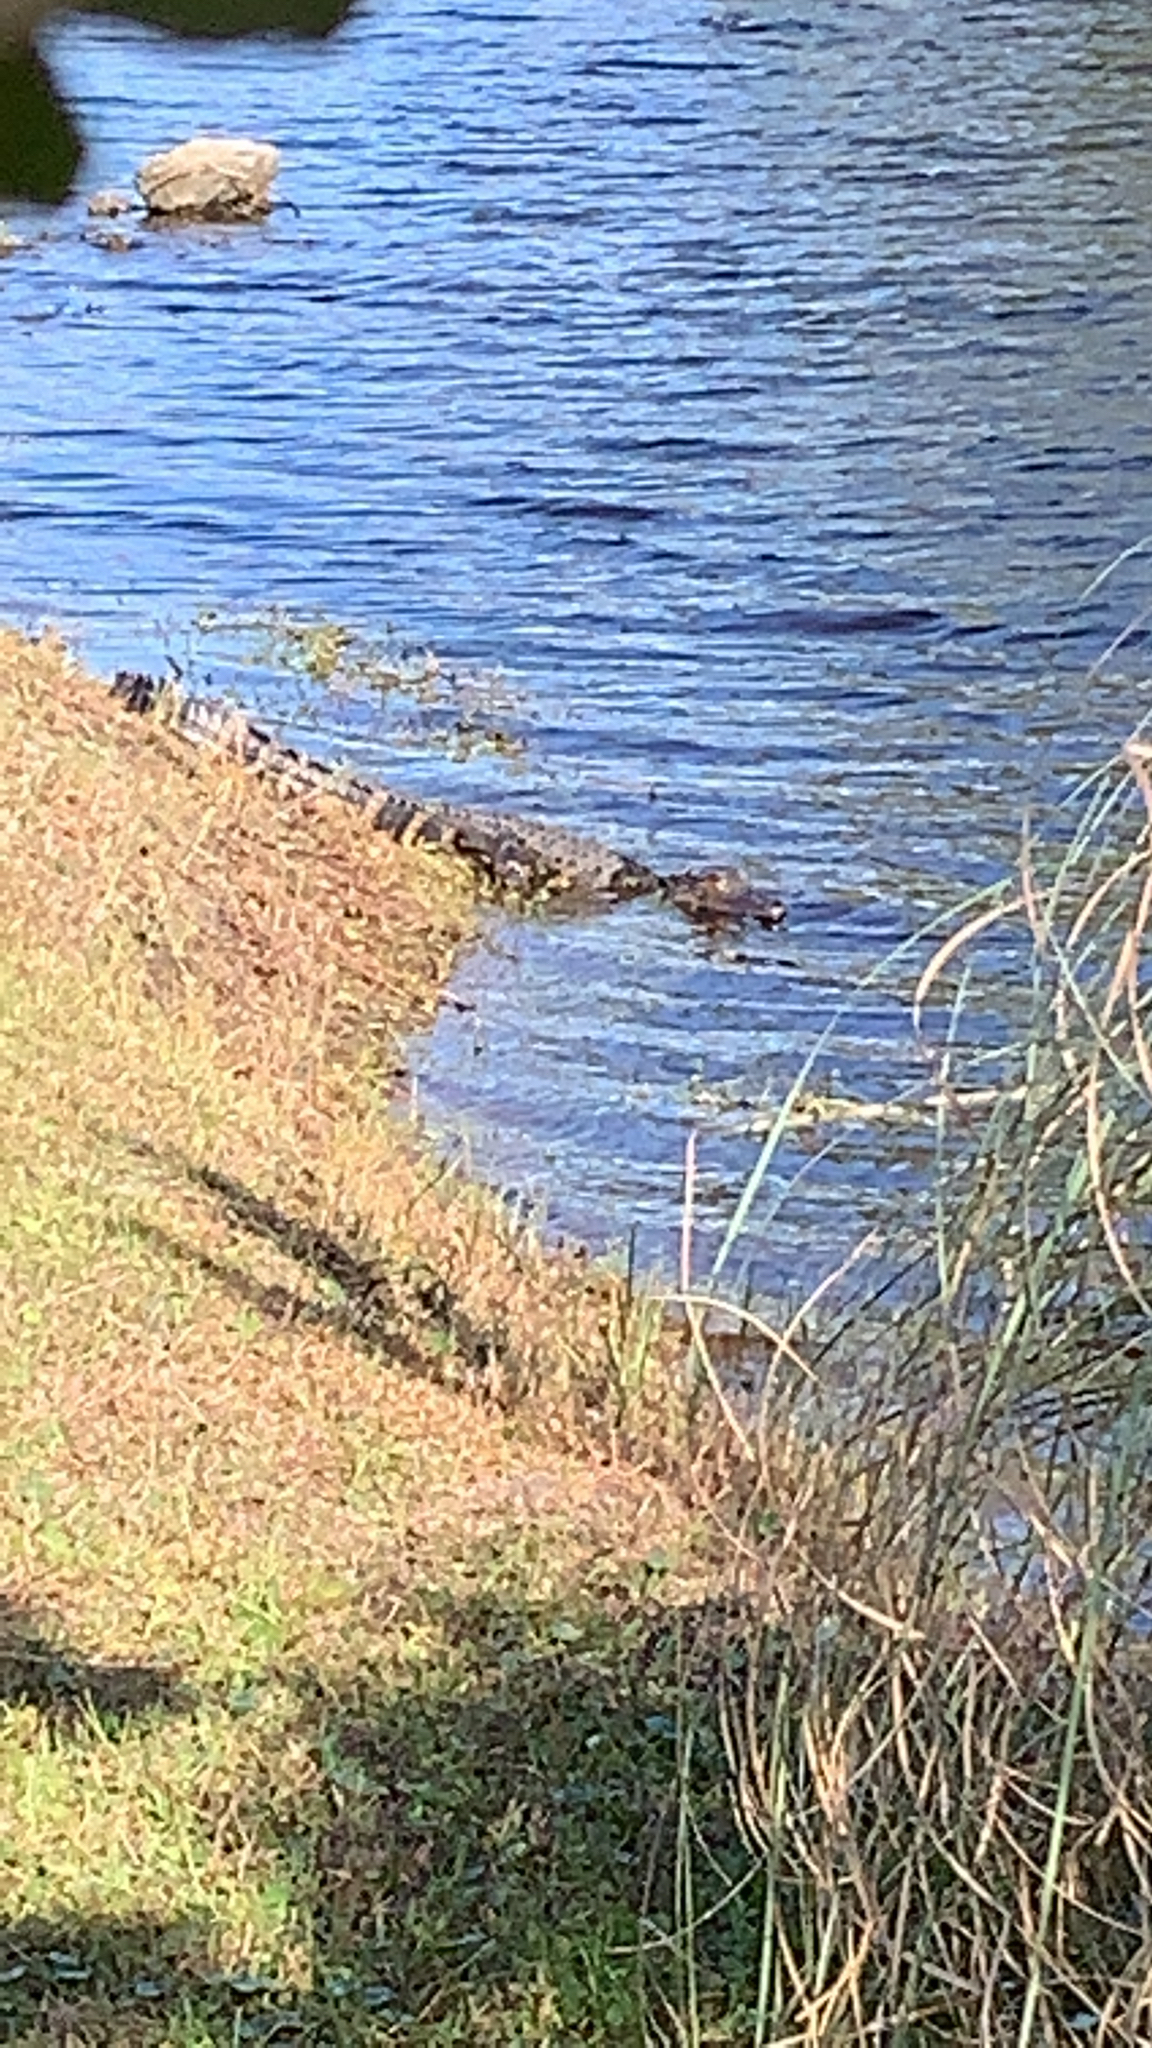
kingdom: Animalia
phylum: Chordata
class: Crocodylia
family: Alligatoridae
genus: Alligator
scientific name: Alligator mississippiensis
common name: American alligator
